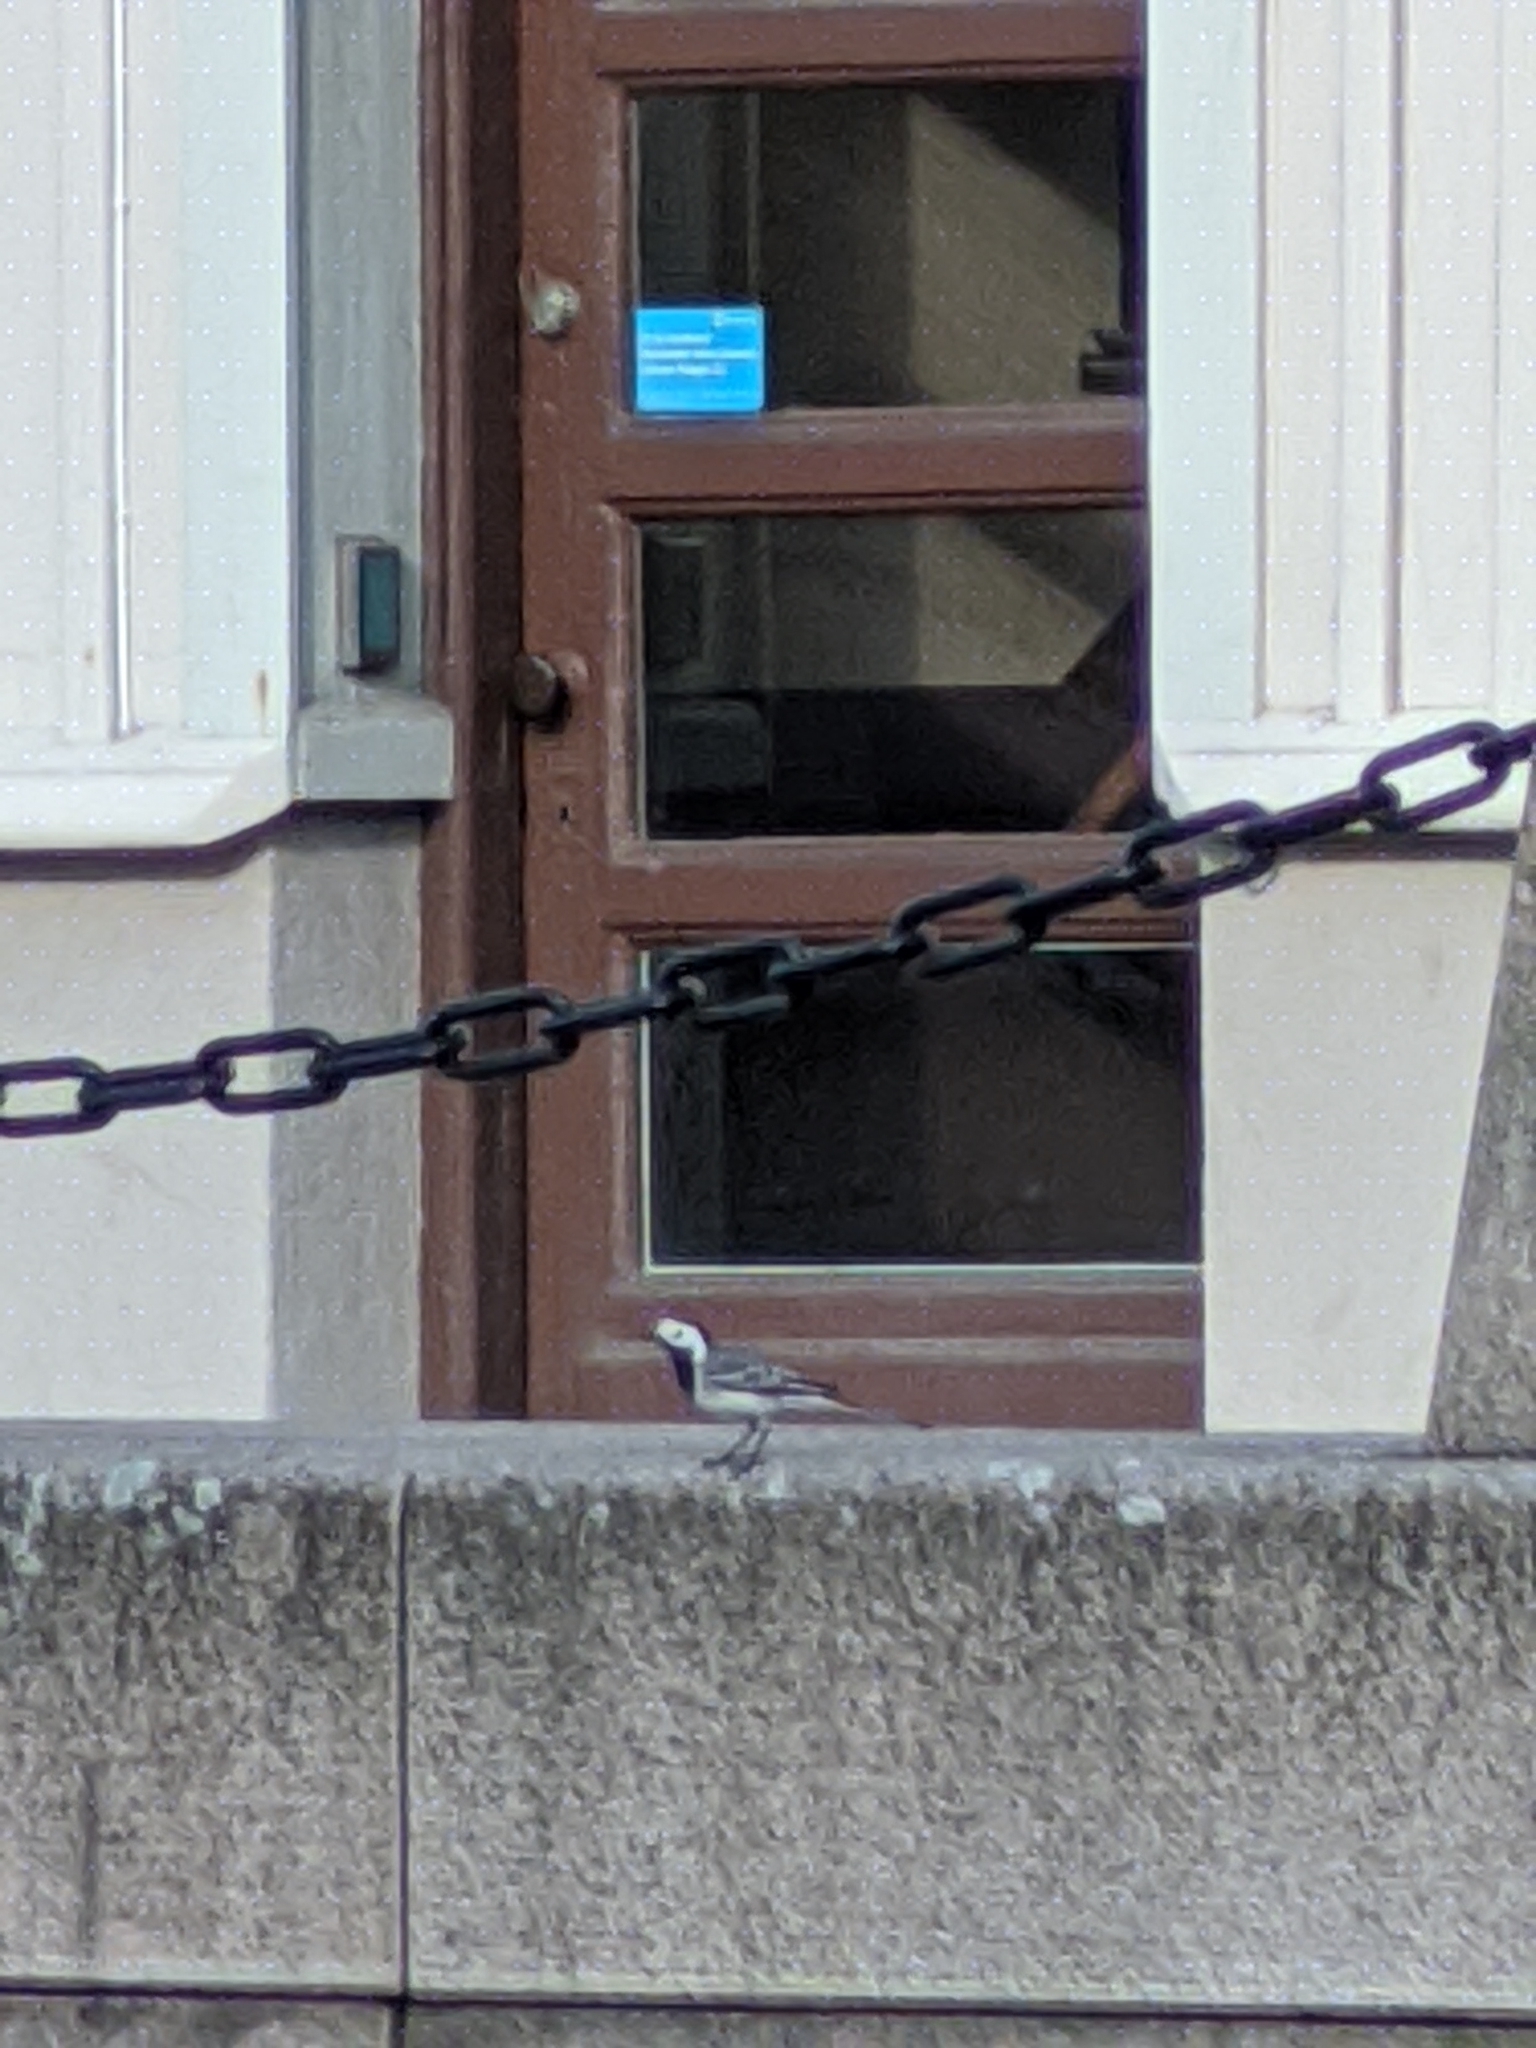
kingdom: Animalia
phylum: Chordata
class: Aves
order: Passeriformes
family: Motacillidae
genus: Motacilla
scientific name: Motacilla alba
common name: White wagtail
